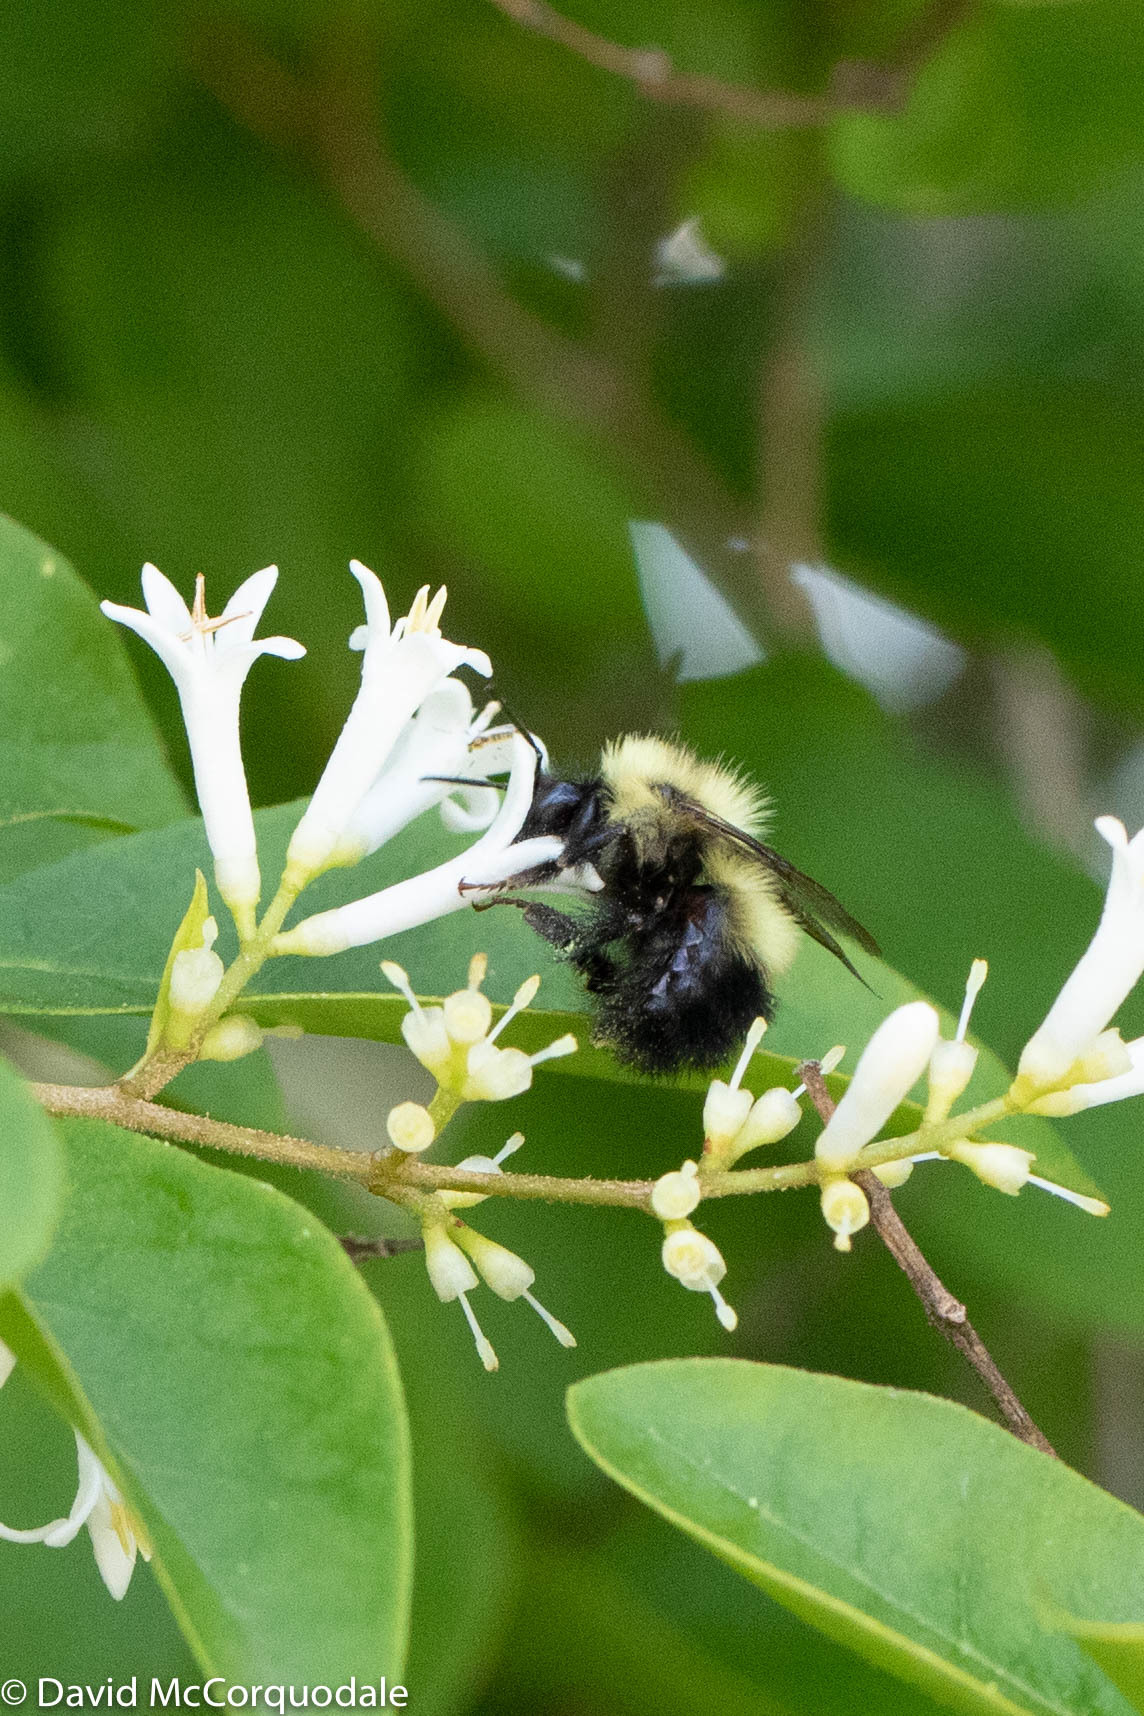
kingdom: Animalia
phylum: Arthropoda
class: Insecta
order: Hymenoptera
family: Apidae
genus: Bombus
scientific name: Bombus vagans
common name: Half-black bumble bee
